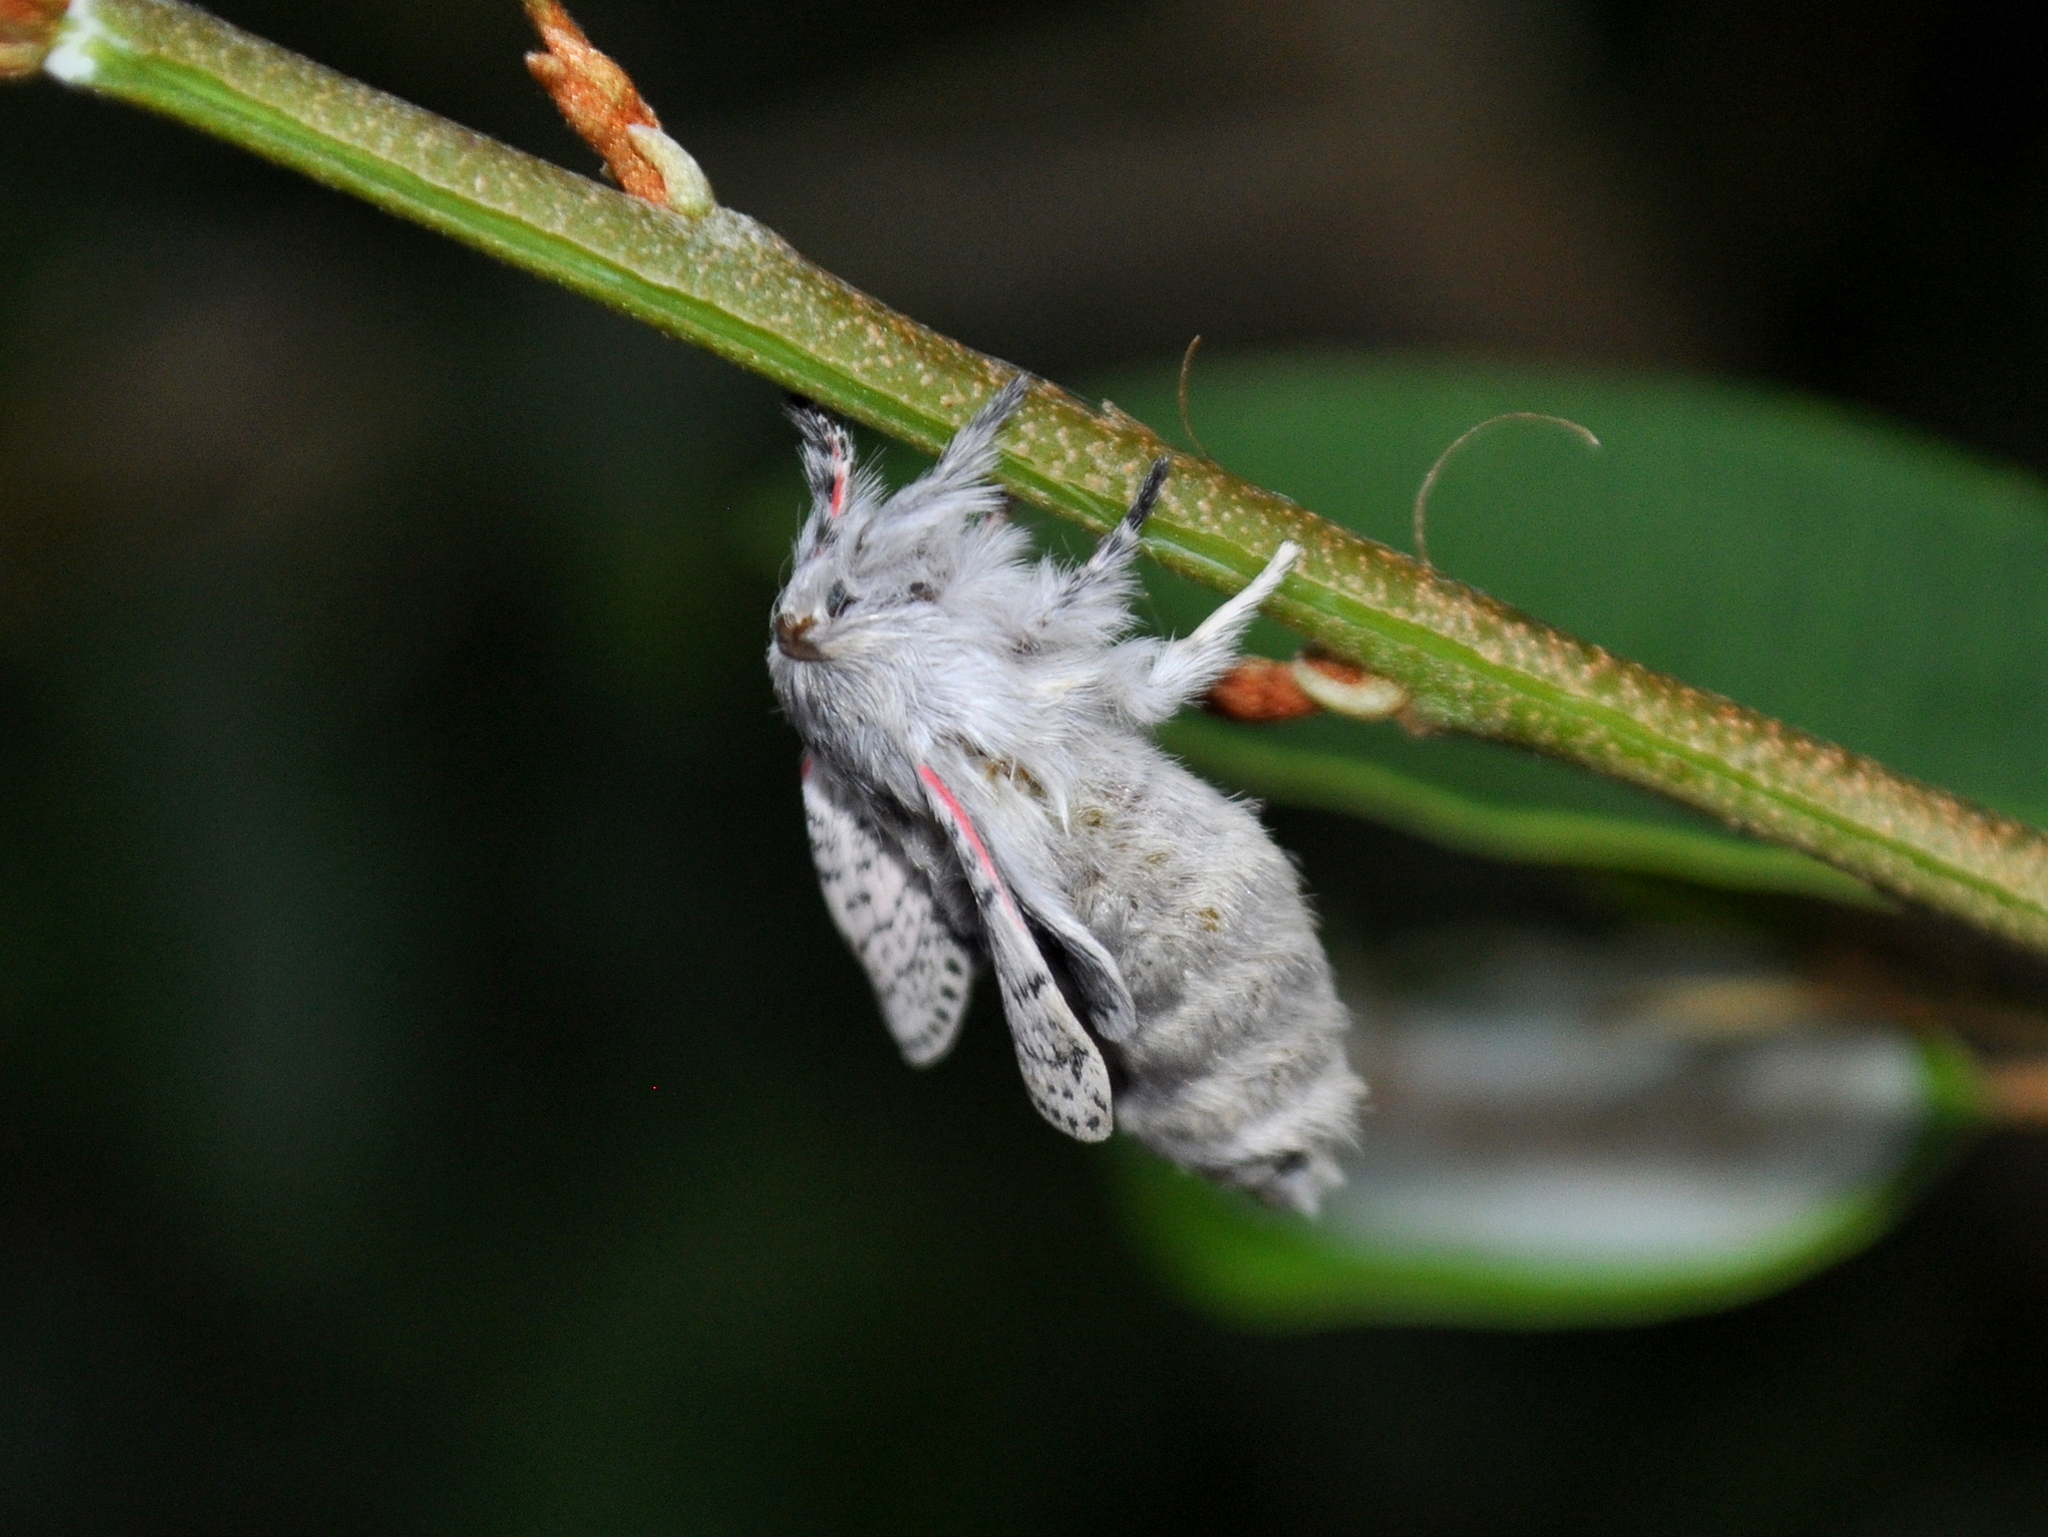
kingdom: Animalia
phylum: Arthropoda
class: Insecta
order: Lepidoptera
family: Lasiocampidae
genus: Artace
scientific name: Artace itatiaya
